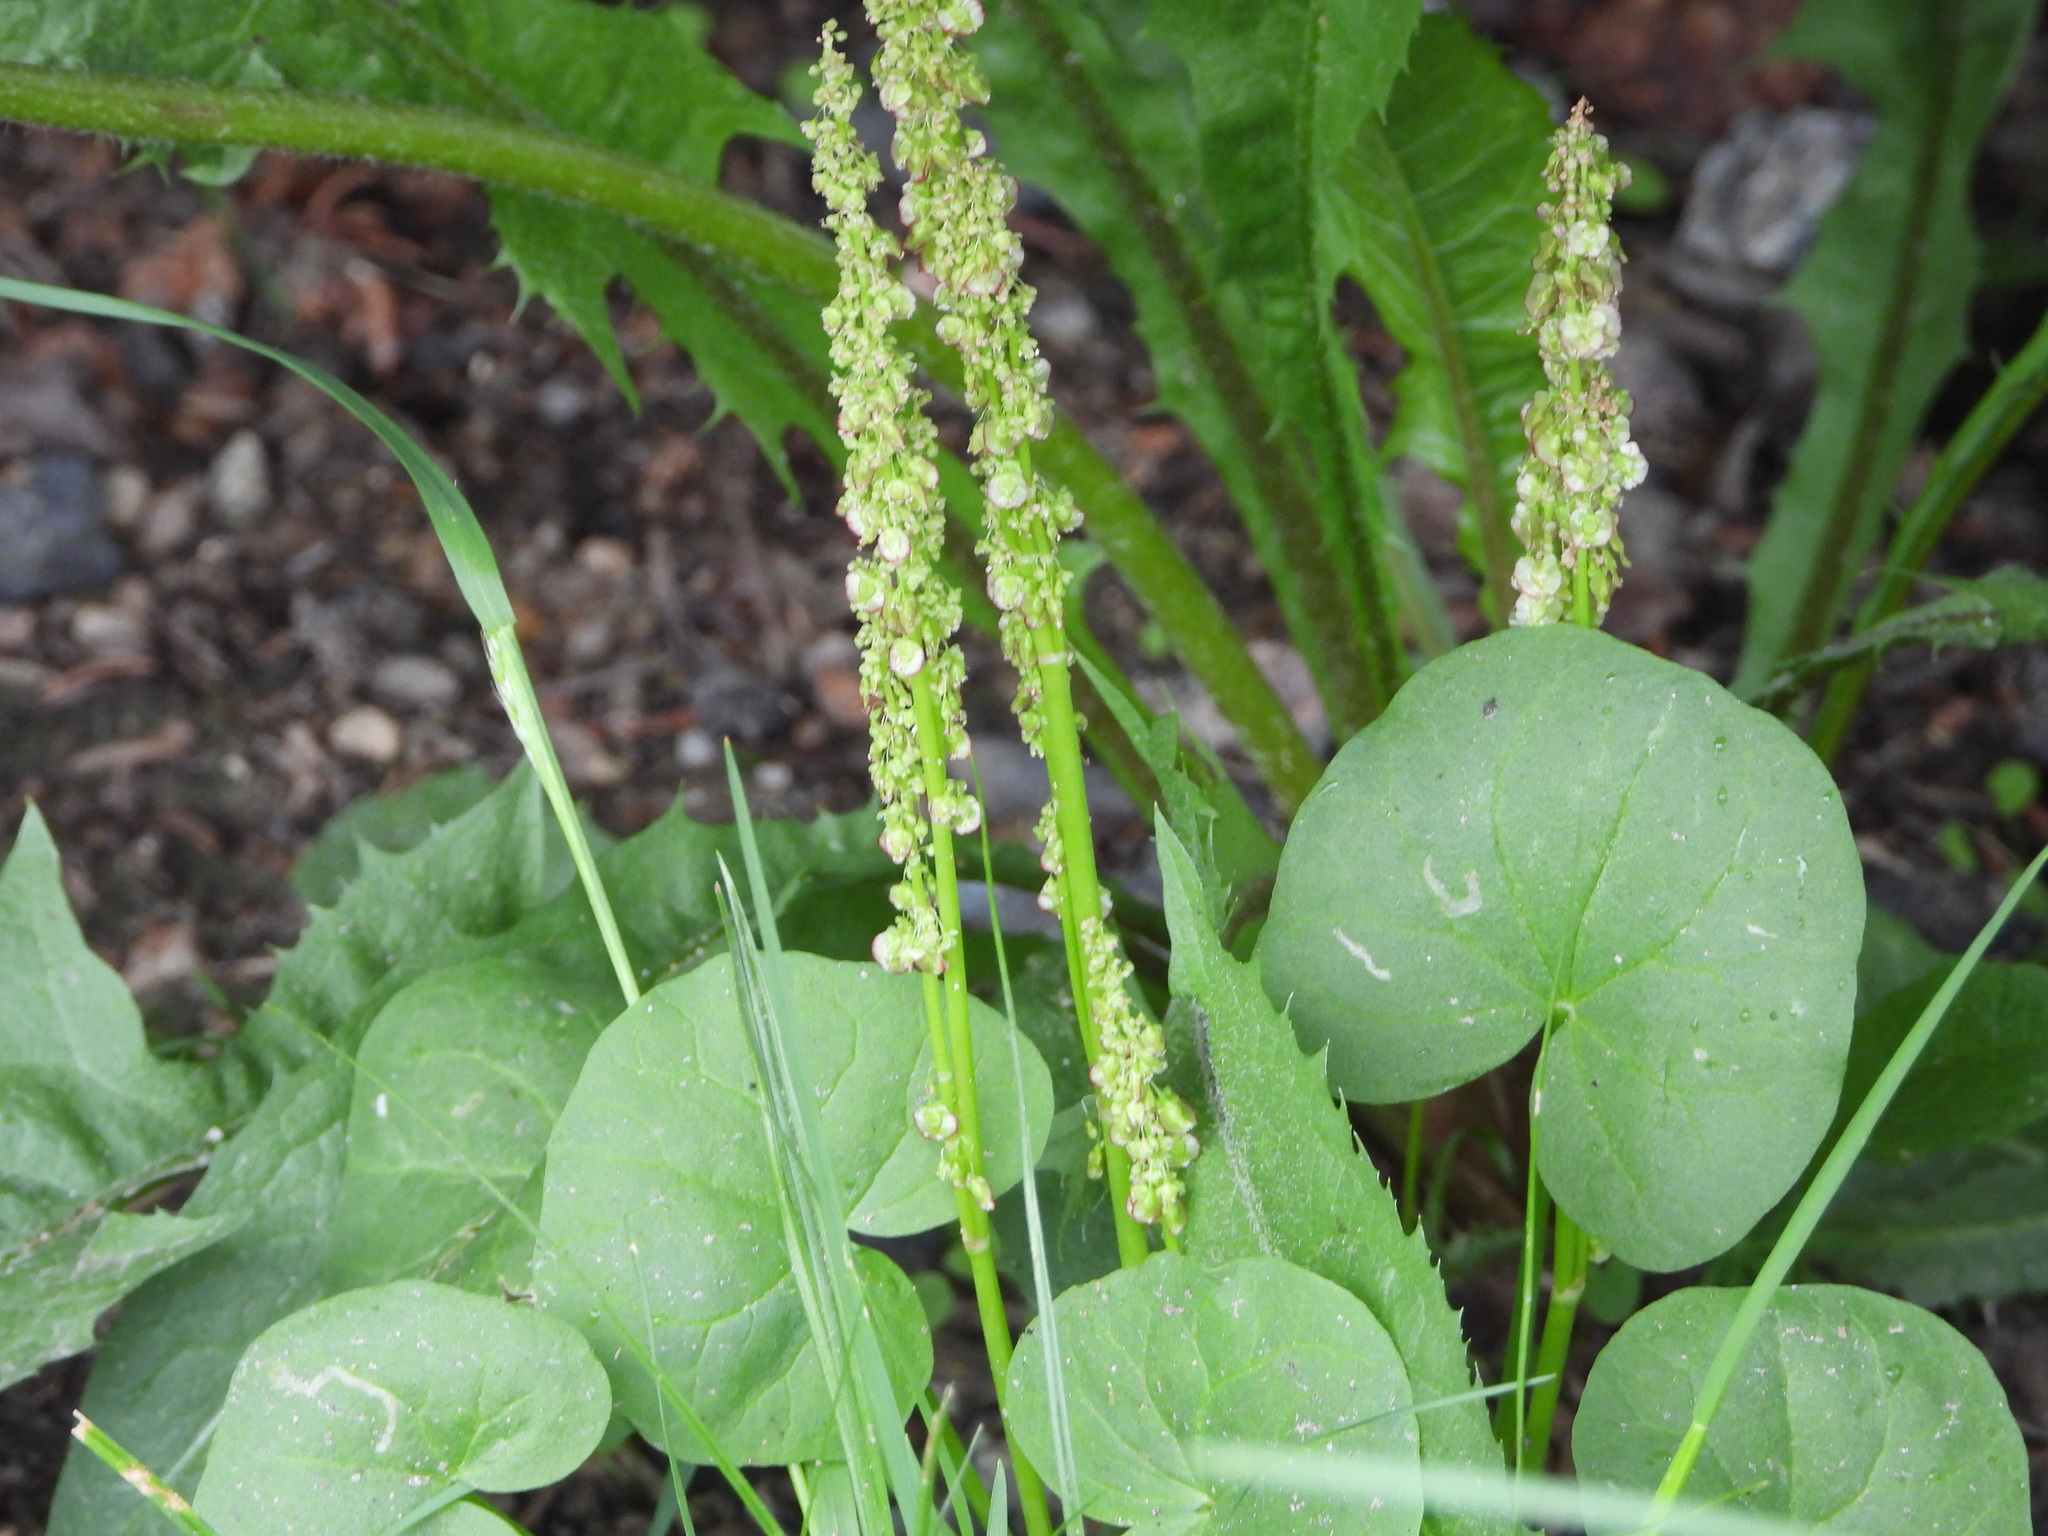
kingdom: Plantae
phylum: Tracheophyta
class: Magnoliopsida
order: Caryophyllales
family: Polygonaceae
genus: Oxyria
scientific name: Oxyria digyna
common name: Alpine mountain-sorrel
